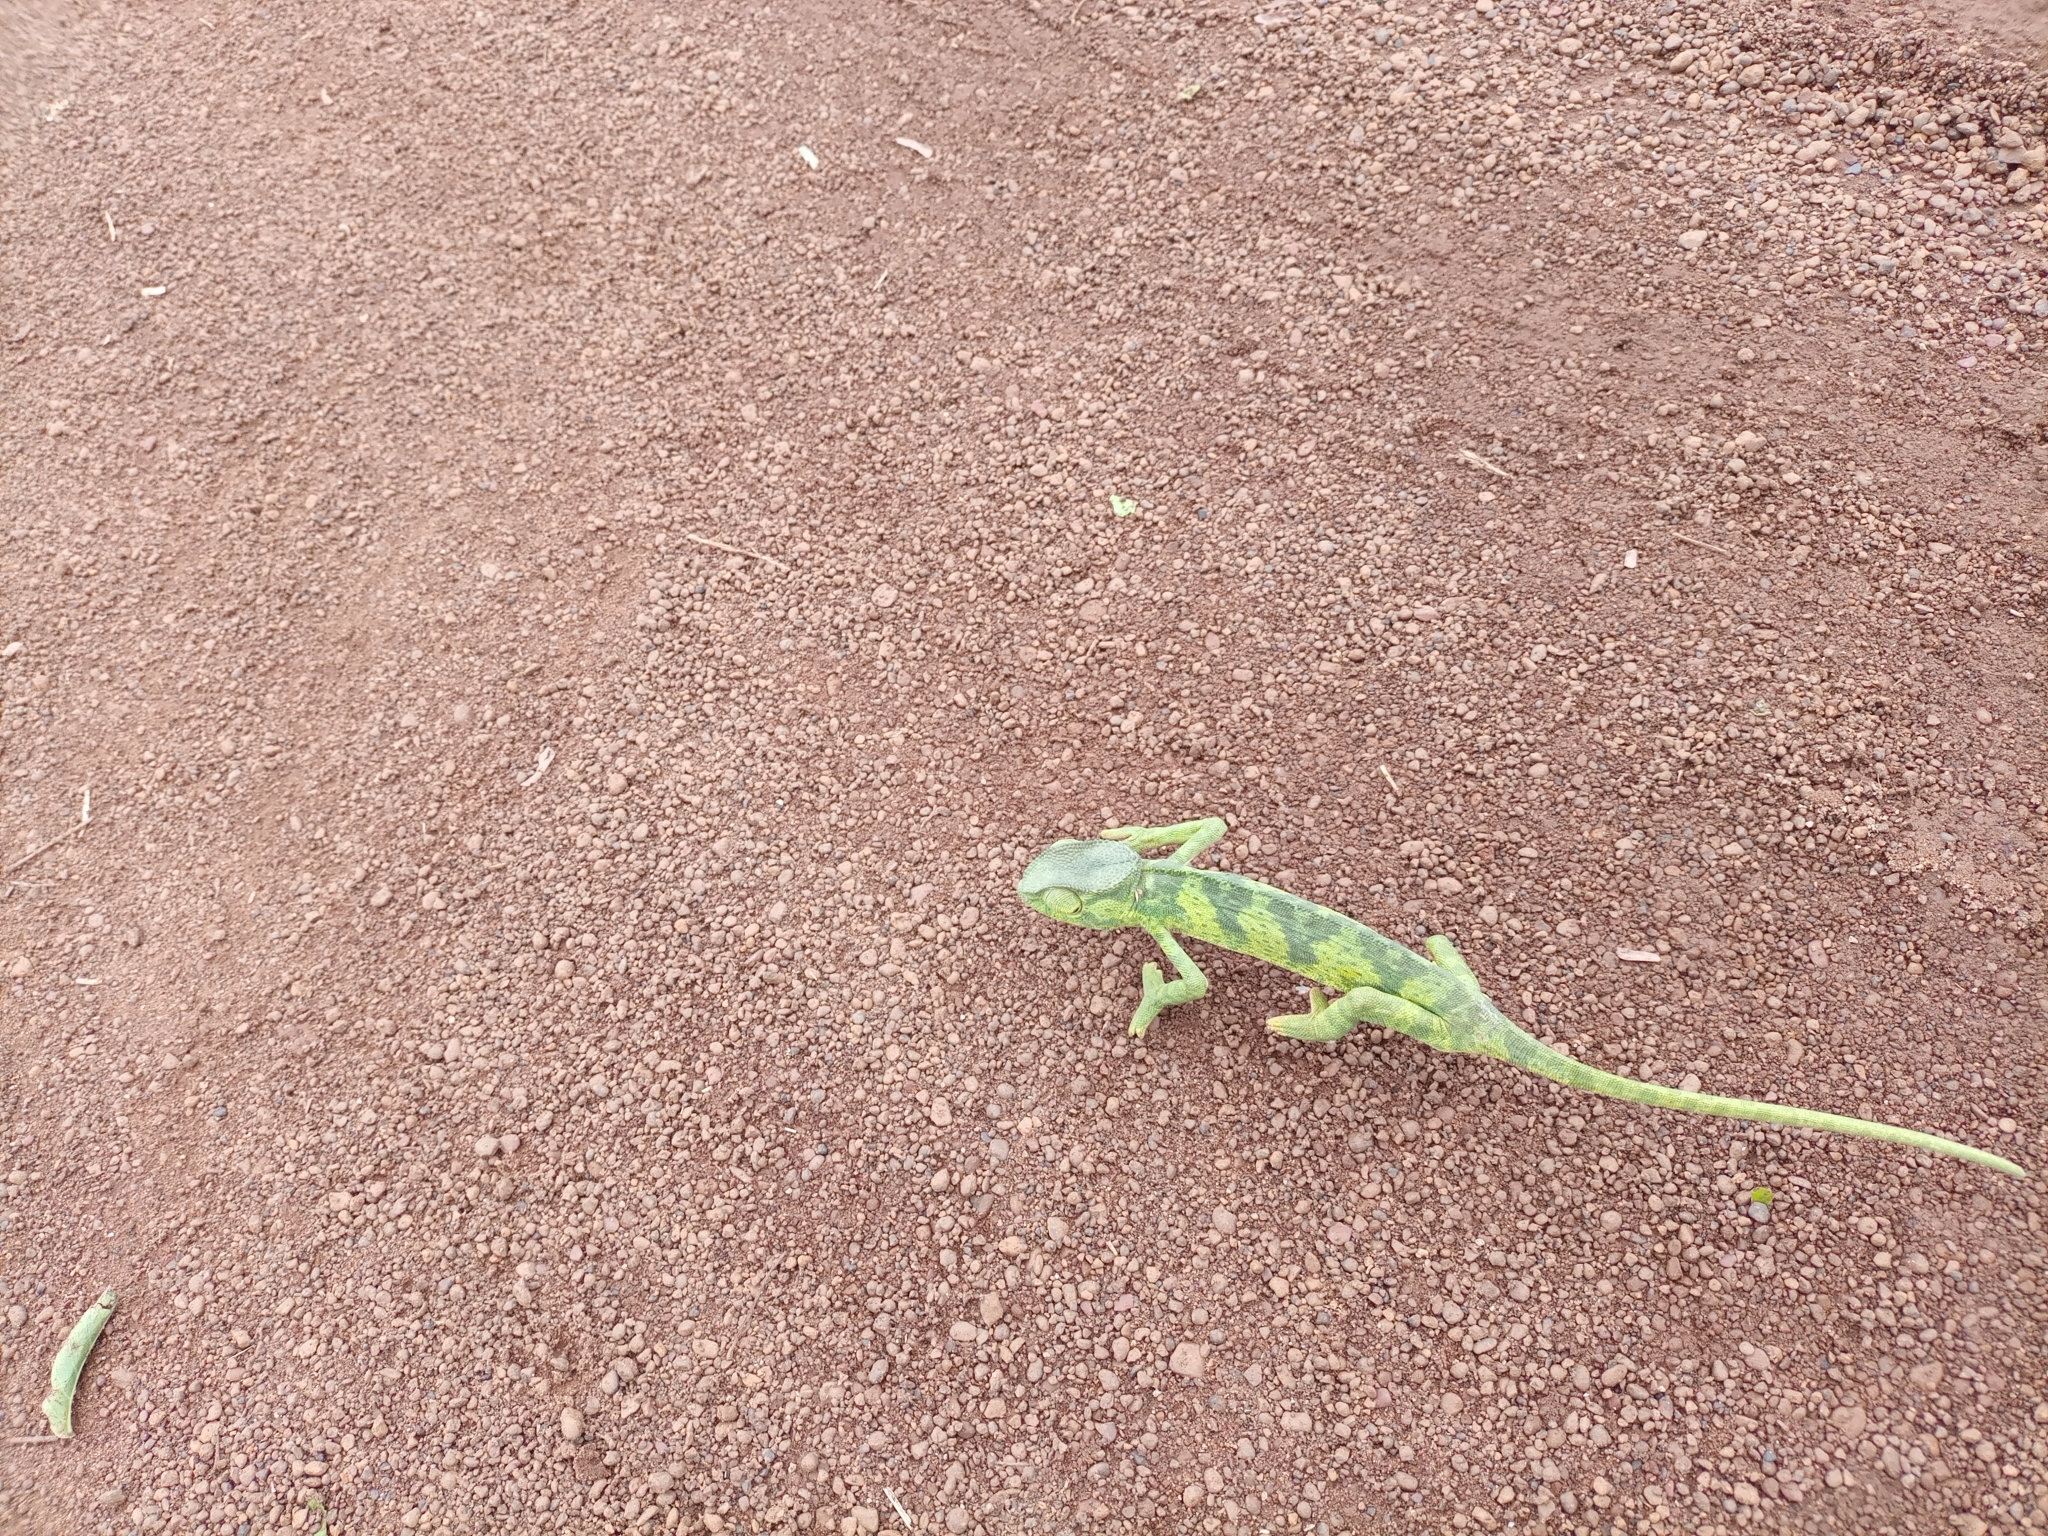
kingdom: Animalia
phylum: Chordata
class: Squamata
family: Chamaeleonidae
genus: Chamaeleo
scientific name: Chamaeleo gracilis
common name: Graceful chameleon
